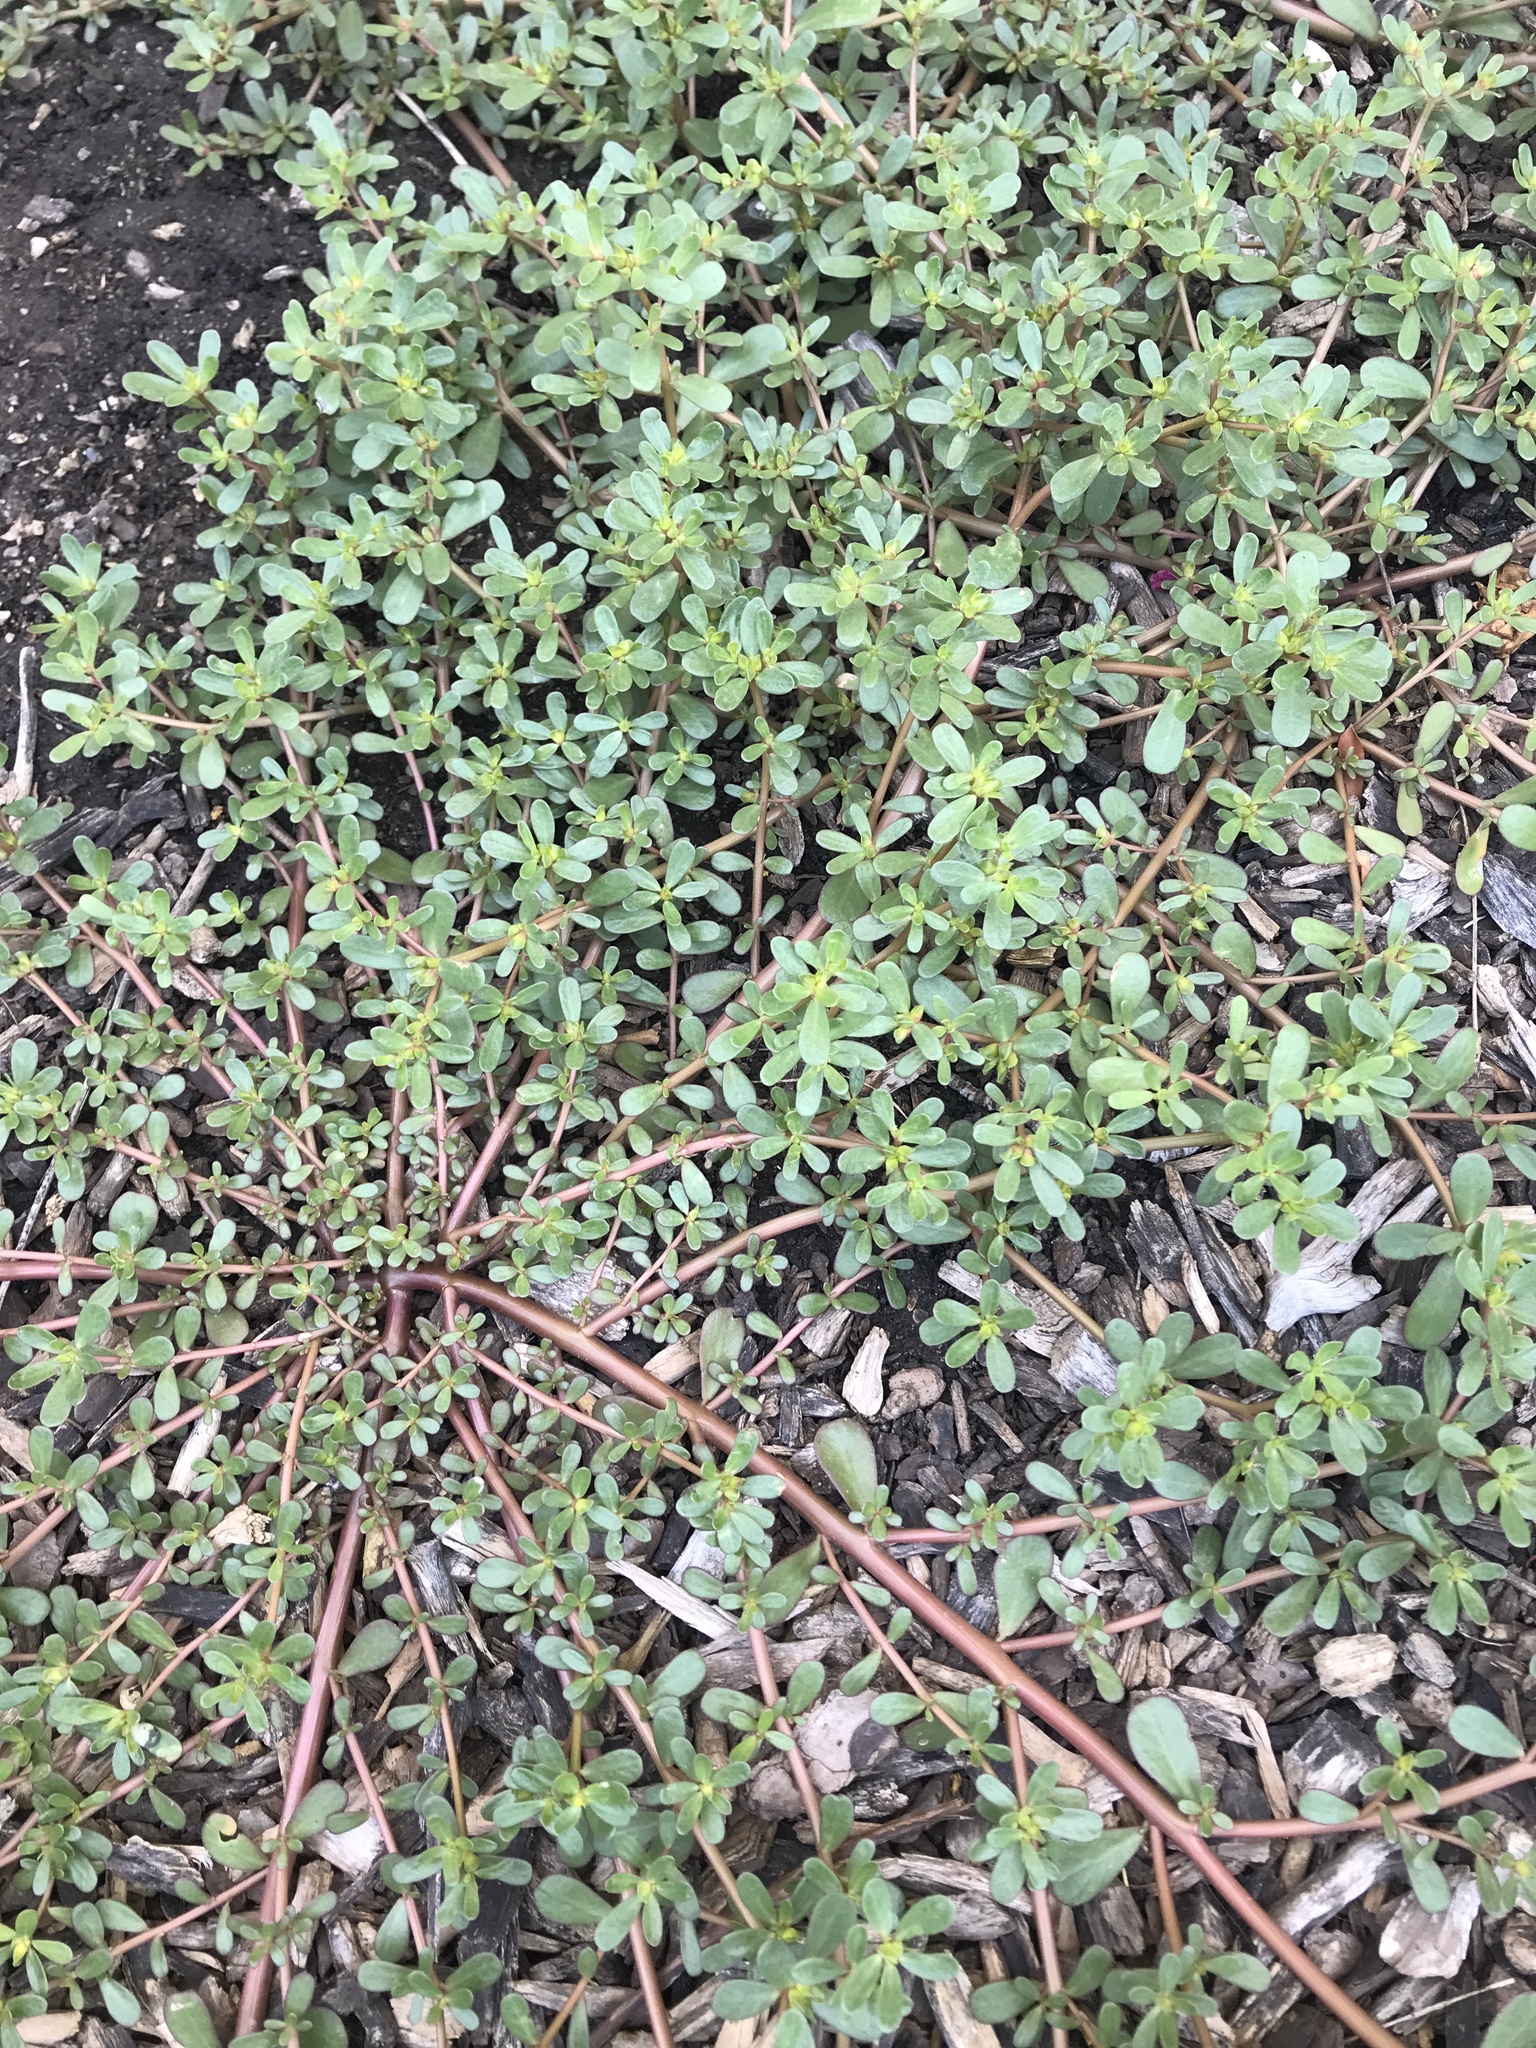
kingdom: Plantae
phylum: Tracheophyta
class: Magnoliopsida
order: Caryophyllales
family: Portulacaceae
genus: Portulaca
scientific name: Portulaca oleracea
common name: Common purslane
